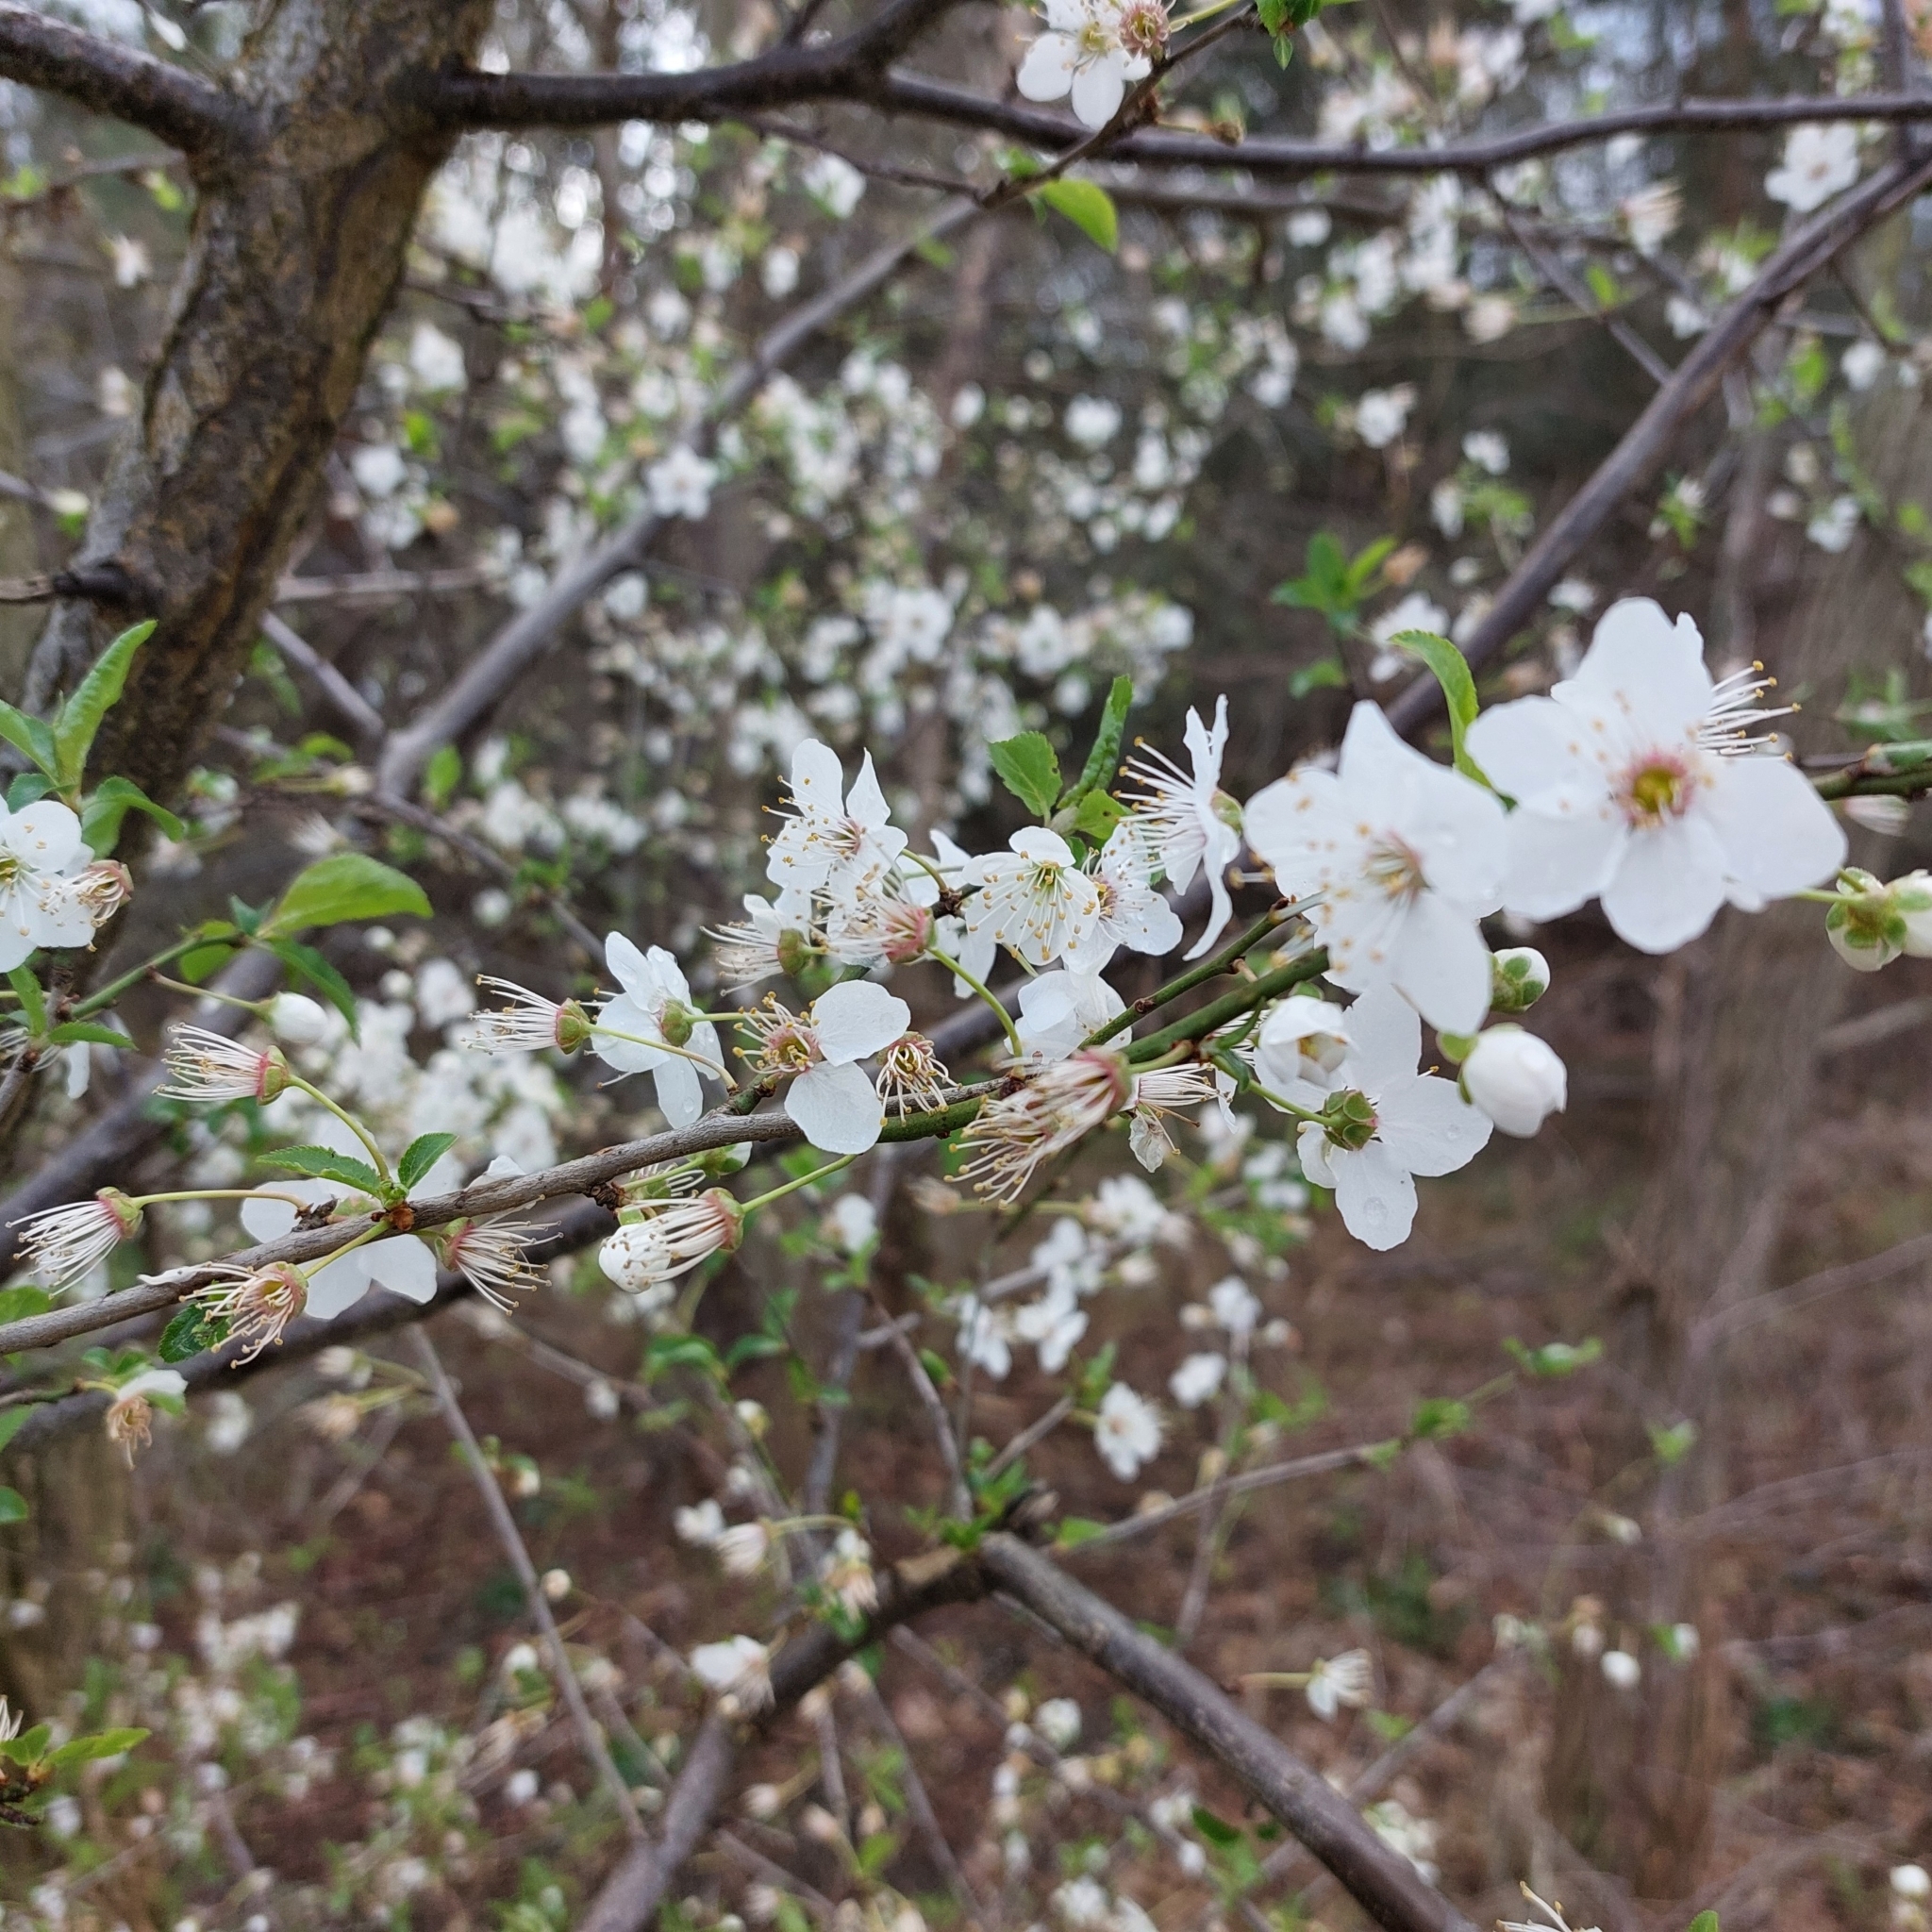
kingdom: Plantae
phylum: Tracheophyta
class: Magnoliopsida
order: Rosales
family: Rosaceae
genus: Prunus
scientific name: Prunus cerasifera
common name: Cherry plum
